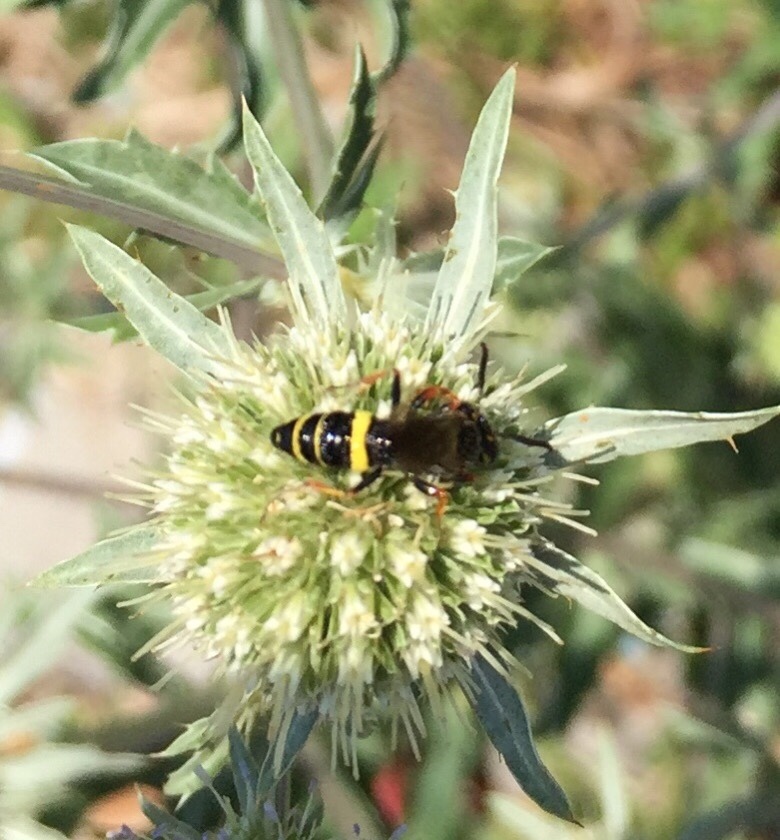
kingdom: Animalia
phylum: Arthropoda
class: Insecta
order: Hymenoptera
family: Crabronidae
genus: Philanthus
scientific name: Philanthus gibbosus
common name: Humped beewolf
